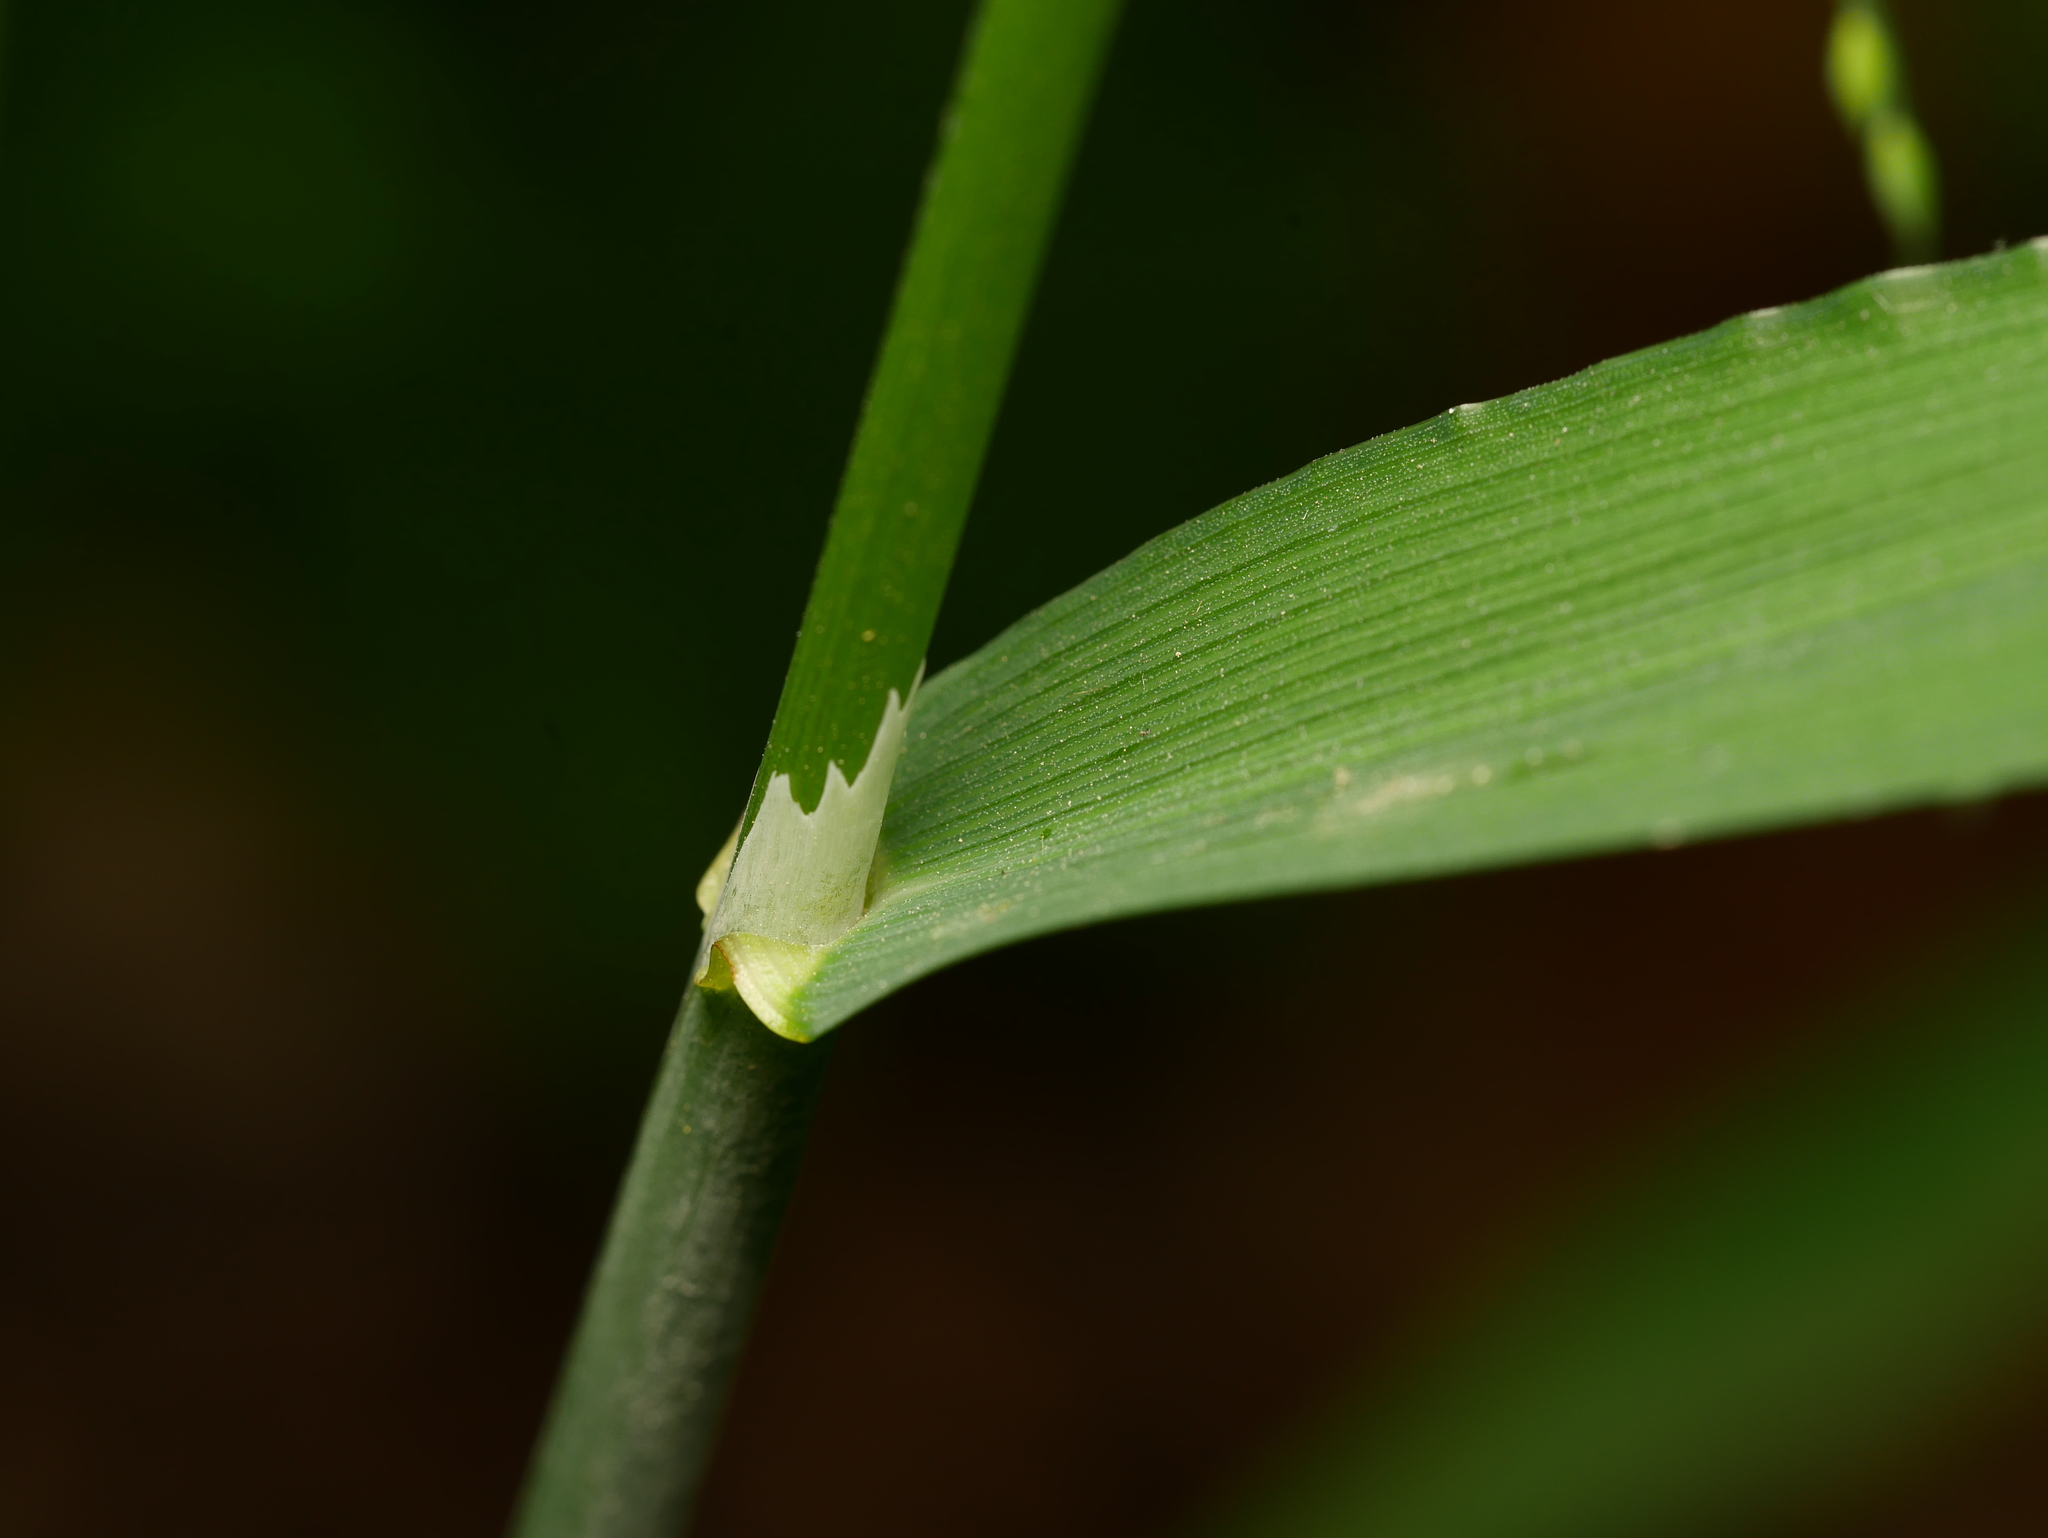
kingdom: Plantae
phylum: Tracheophyta
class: Liliopsida
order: Poales
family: Poaceae
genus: Milium
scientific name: Milium effusum
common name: Wood millet
